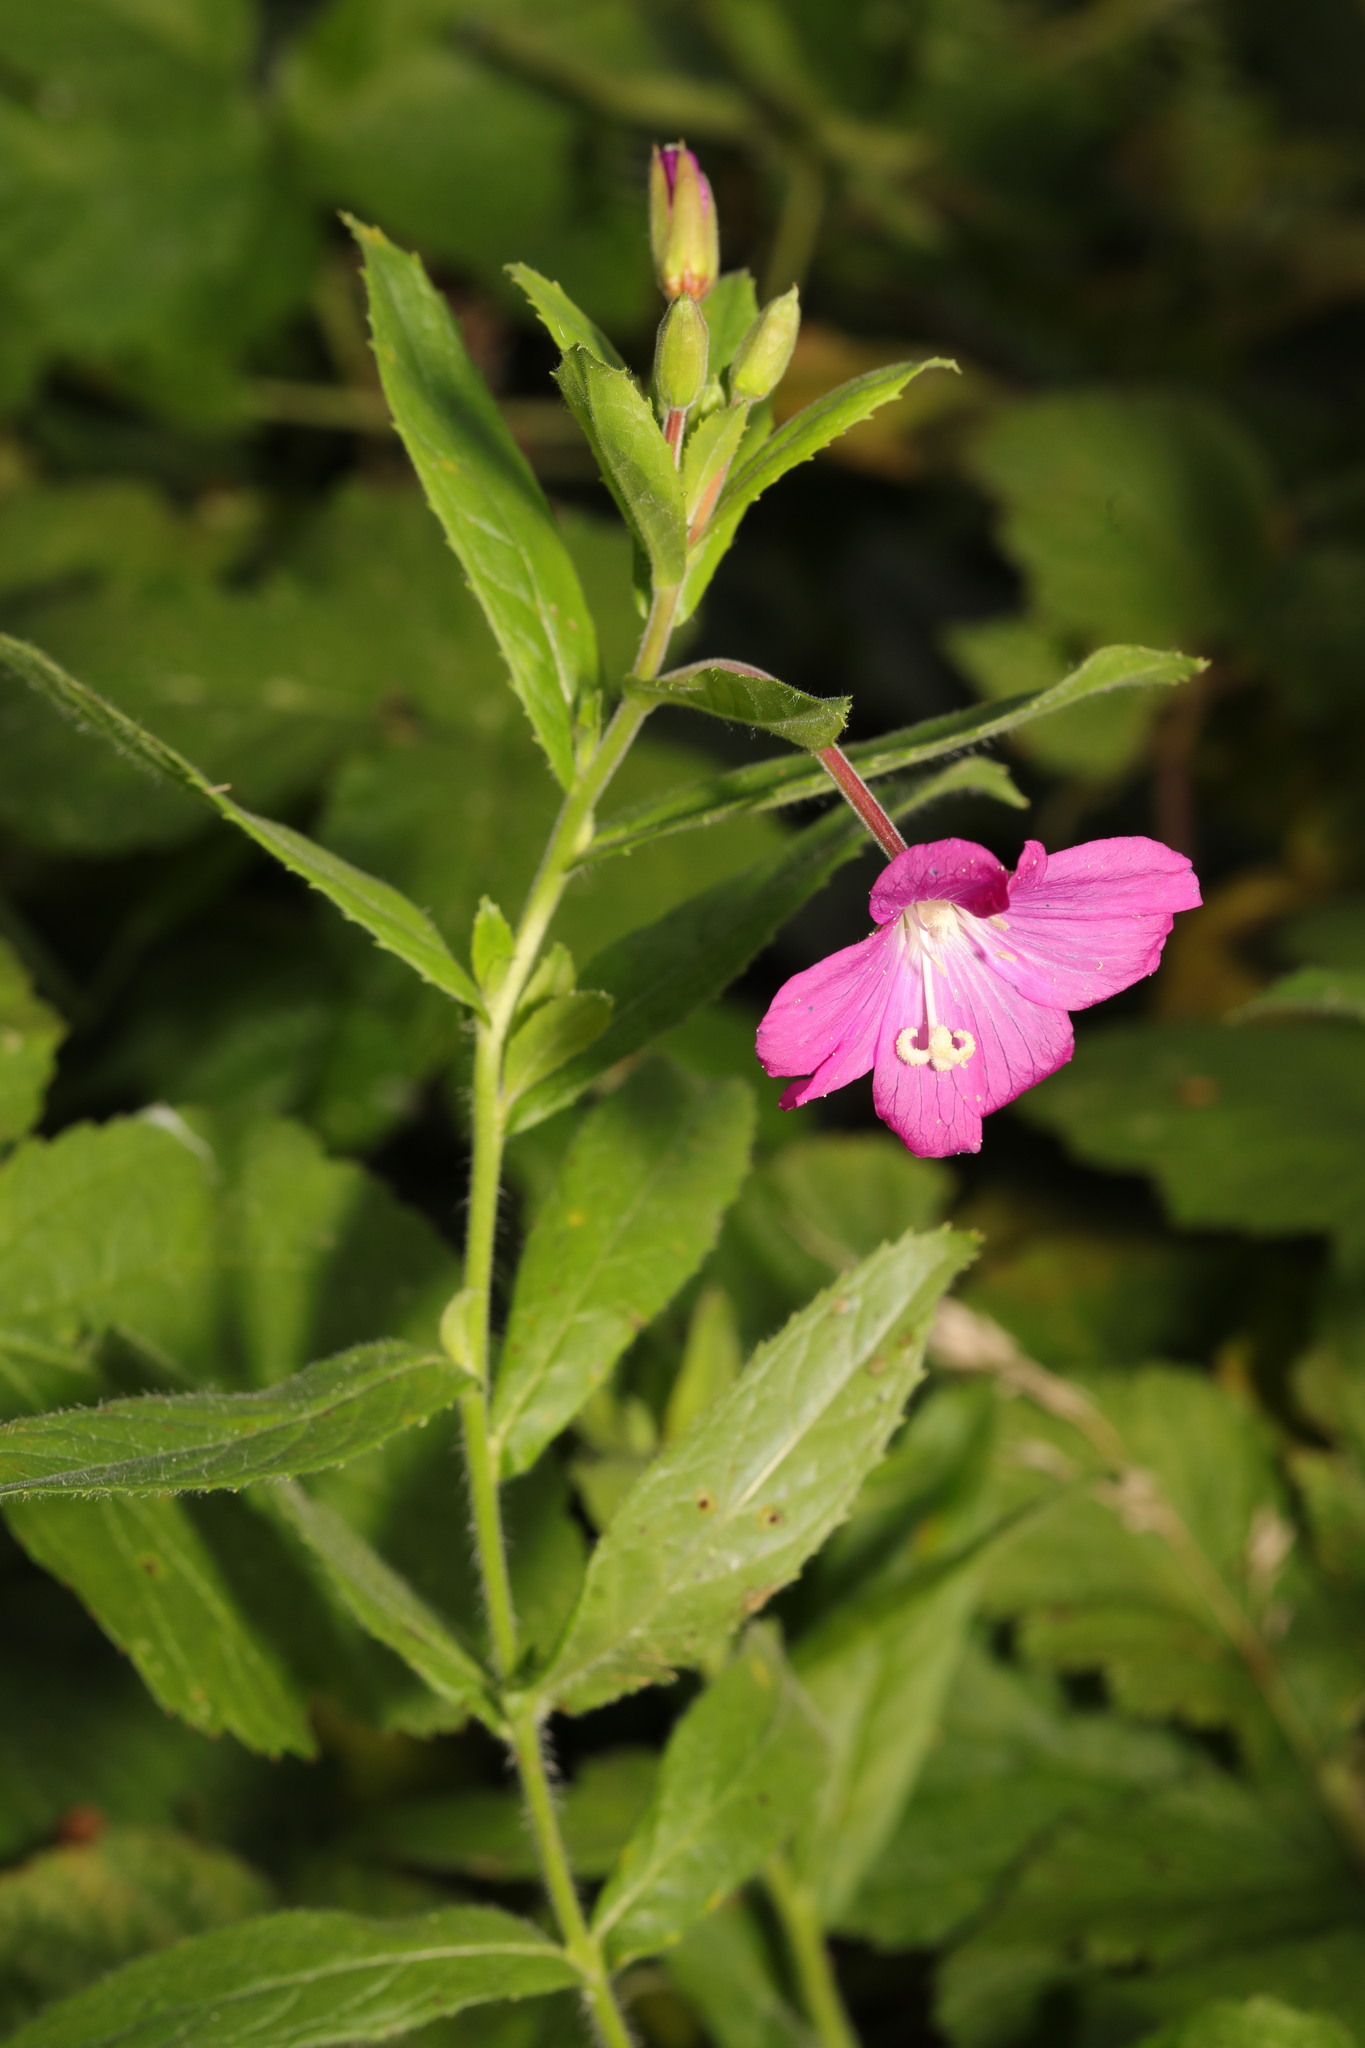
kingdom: Plantae
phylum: Tracheophyta
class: Magnoliopsida
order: Myrtales
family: Onagraceae
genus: Epilobium
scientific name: Epilobium hirsutum
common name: Great willowherb
